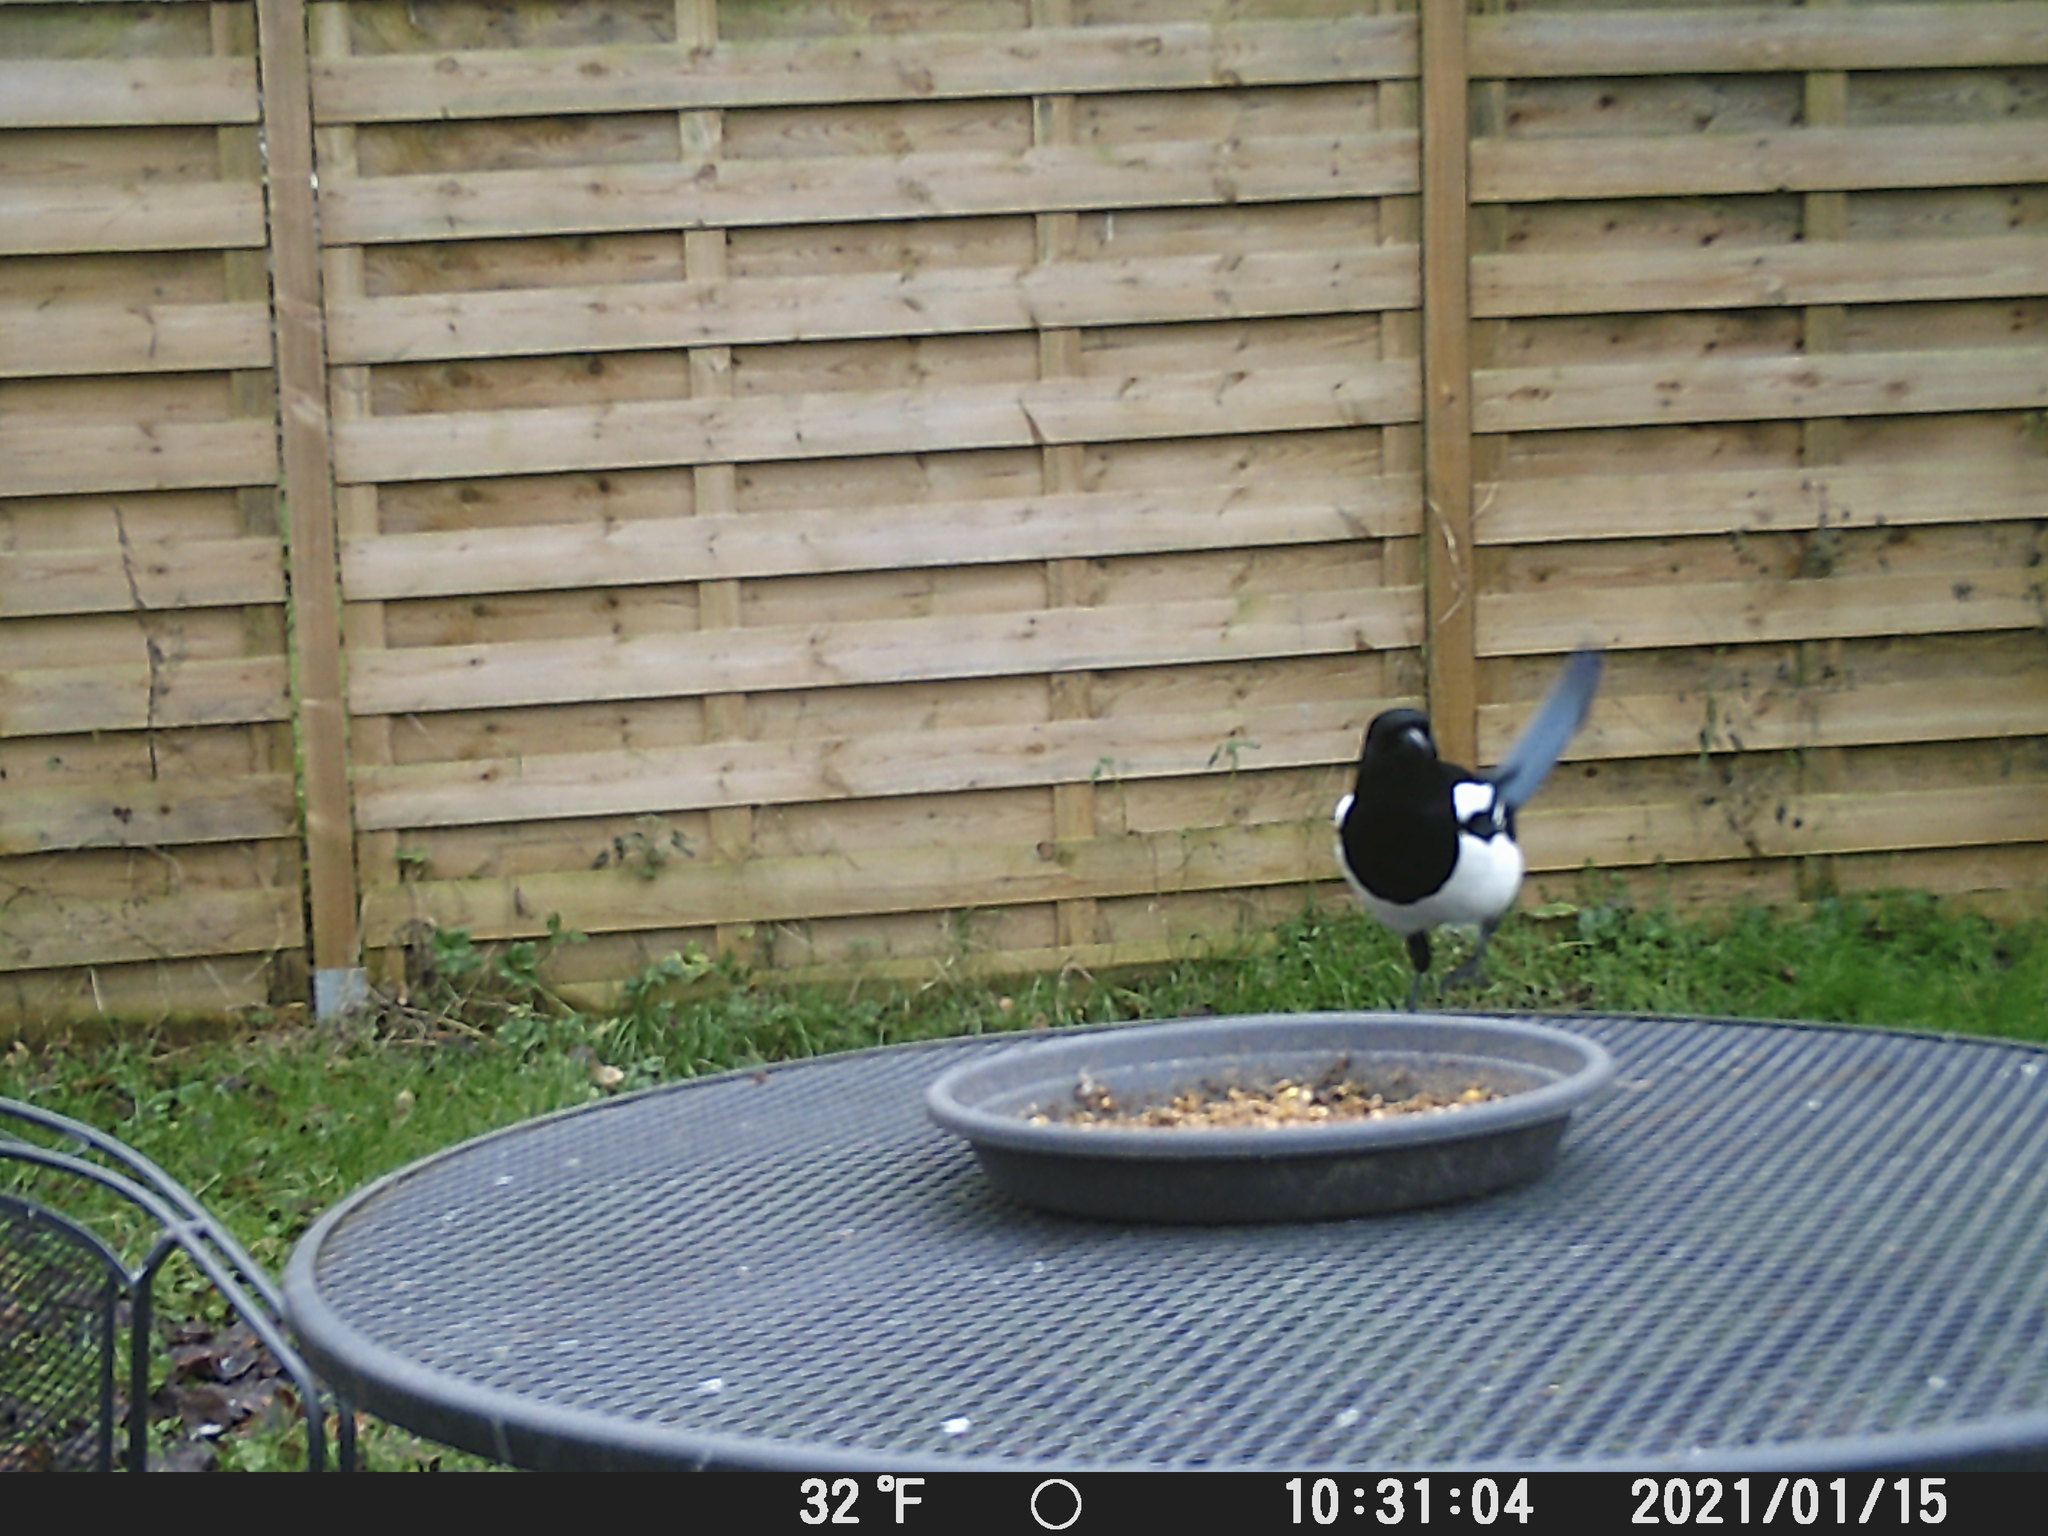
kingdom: Animalia
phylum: Chordata
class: Aves
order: Passeriformes
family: Corvidae
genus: Pica
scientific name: Pica pica
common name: Eurasian magpie
